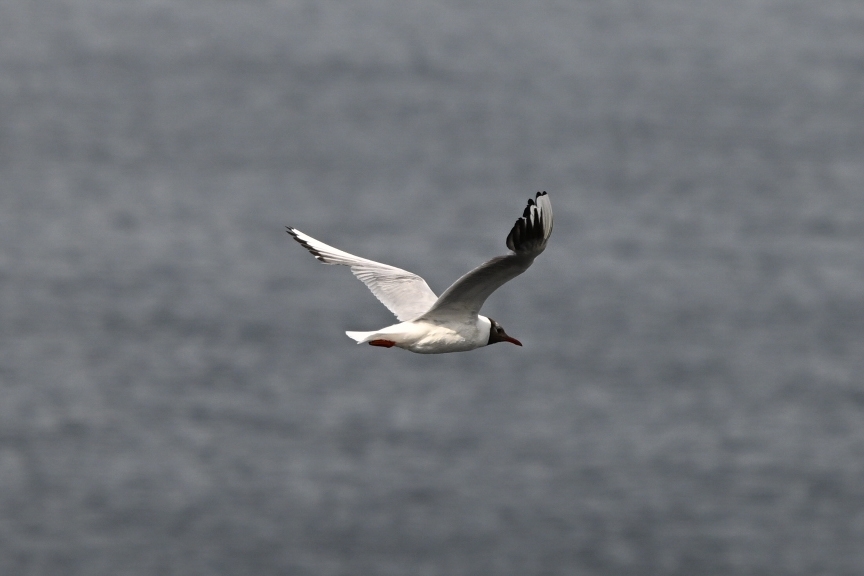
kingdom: Animalia
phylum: Chordata
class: Aves
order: Charadriiformes
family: Laridae
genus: Chroicocephalus
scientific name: Chroicocephalus ridibundus
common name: Black-headed gull
